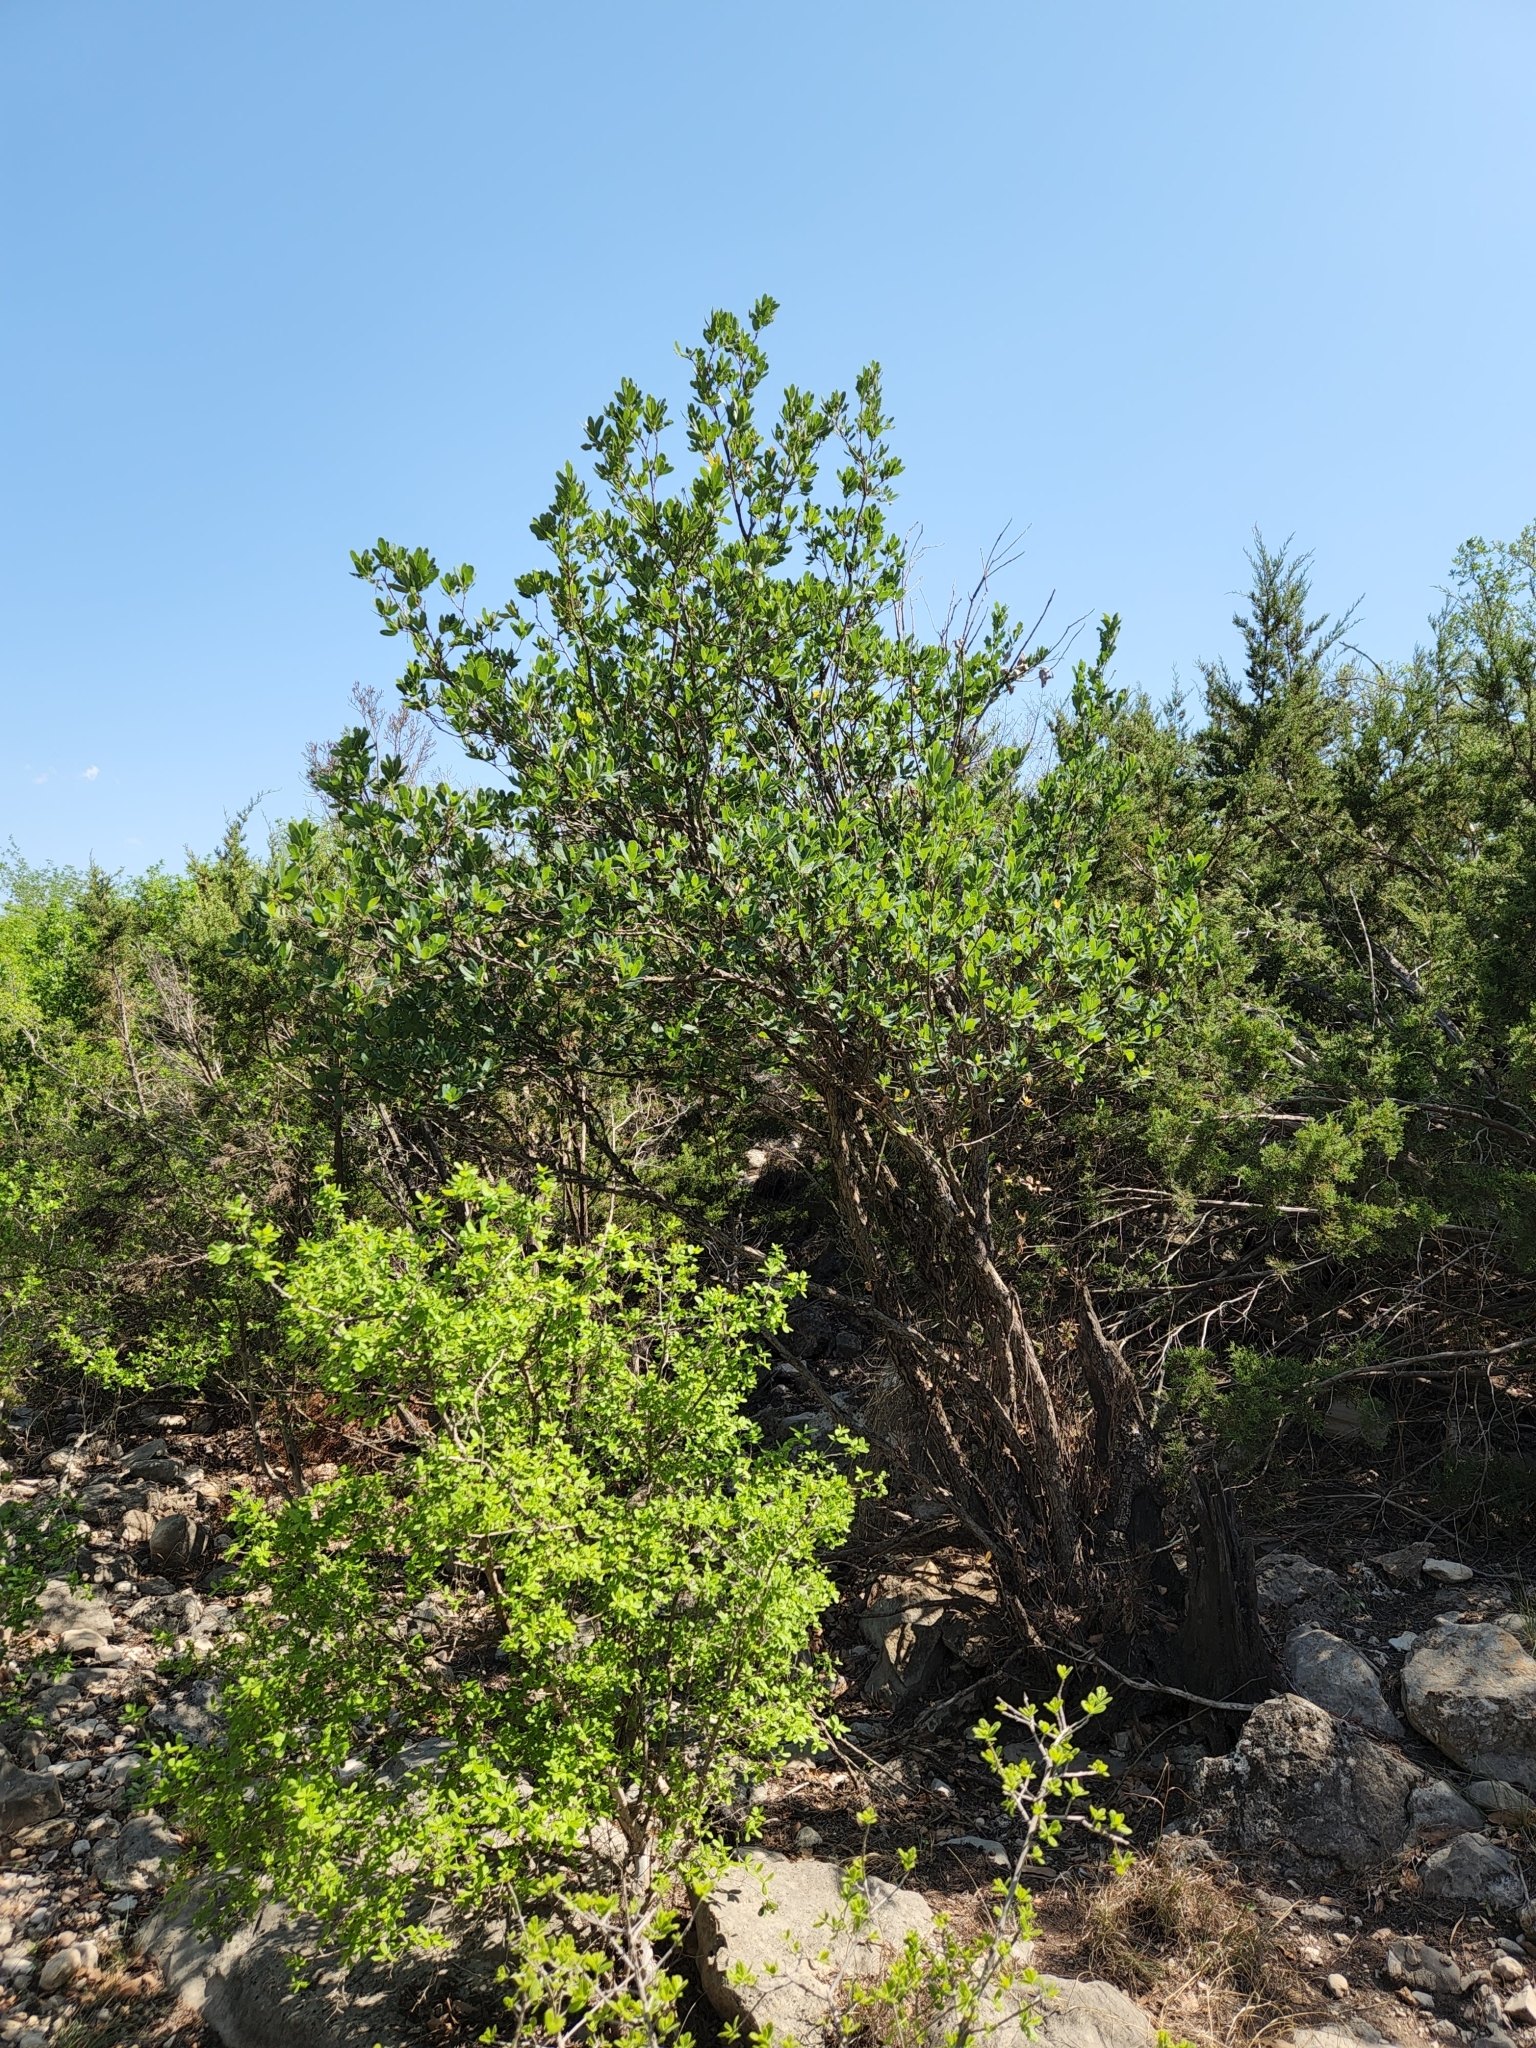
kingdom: Plantae
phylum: Tracheophyta
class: Magnoliopsida
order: Fagales
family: Fagaceae
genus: Quercus
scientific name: Quercus laceyi
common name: Lacey oak
